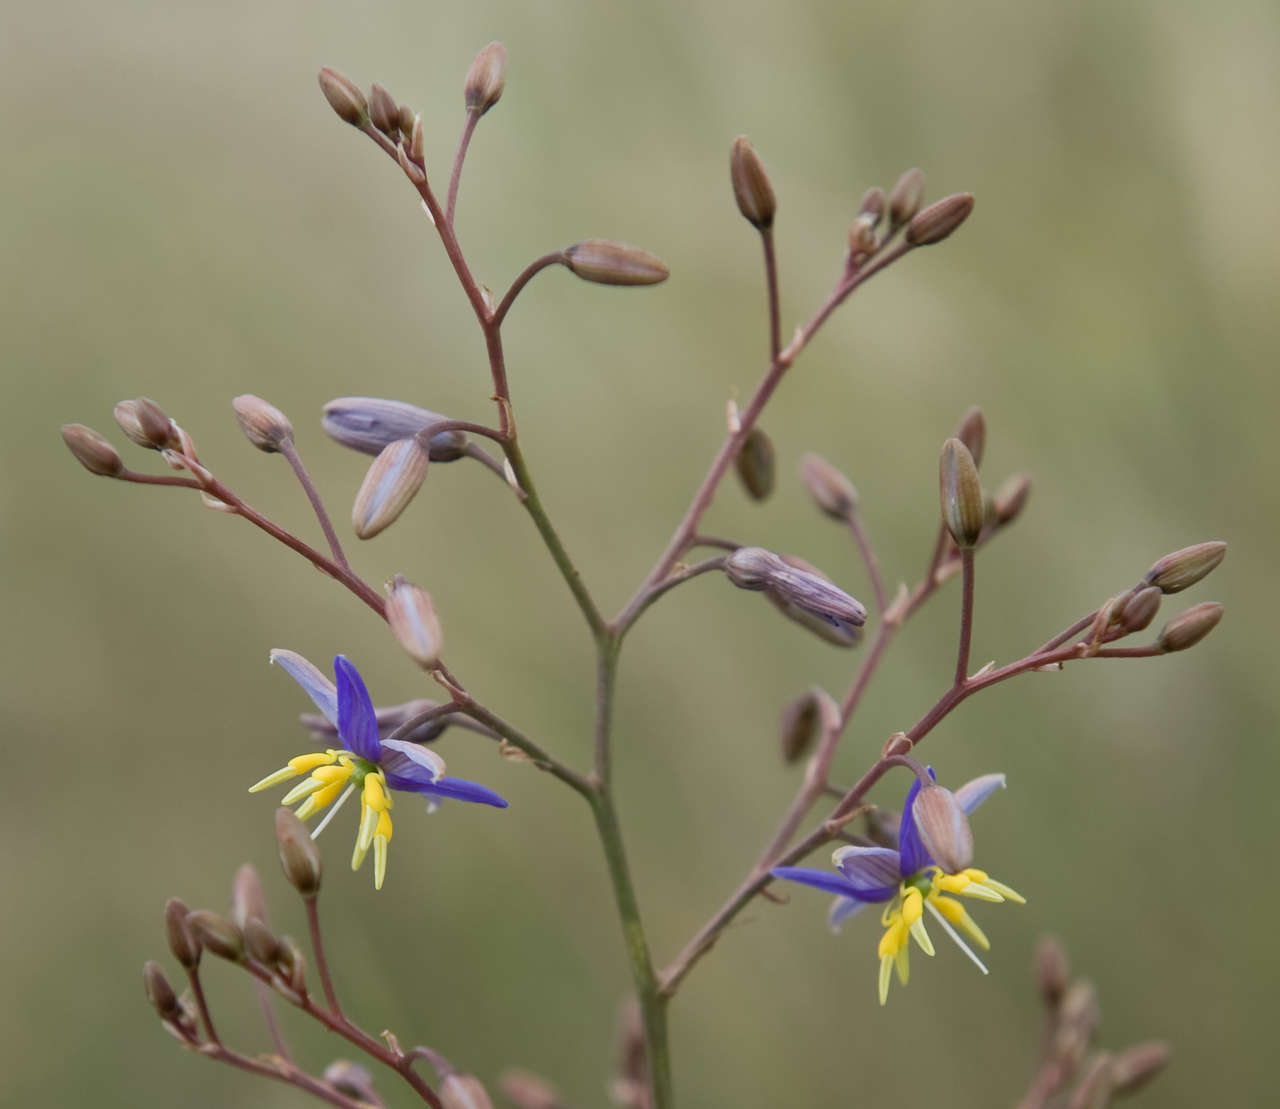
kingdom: Plantae
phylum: Tracheophyta
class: Liliopsida
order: Asparagales
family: Asphodelaceae
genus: Dianella
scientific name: Dianella longifolia
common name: Blue flax-lily
